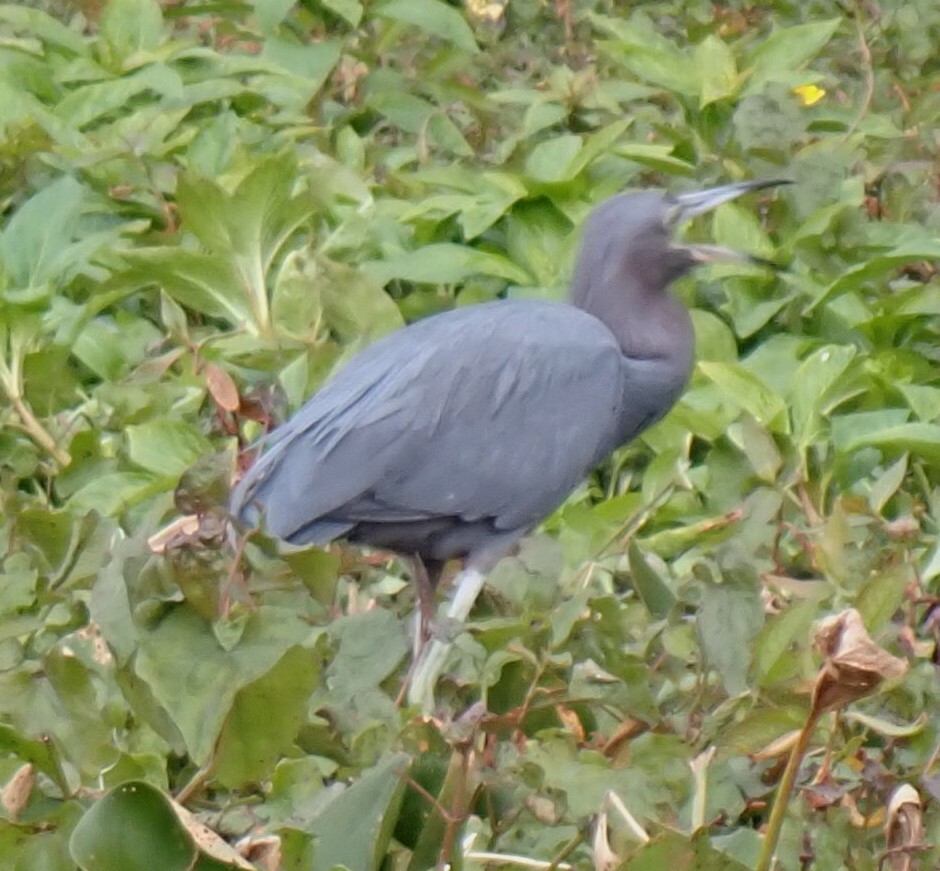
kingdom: Animalia
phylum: Chordata
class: Aves
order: Pelecaniformes
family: Ardeidae
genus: Egretta
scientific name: Egretta caerulea
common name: Little blue heron
